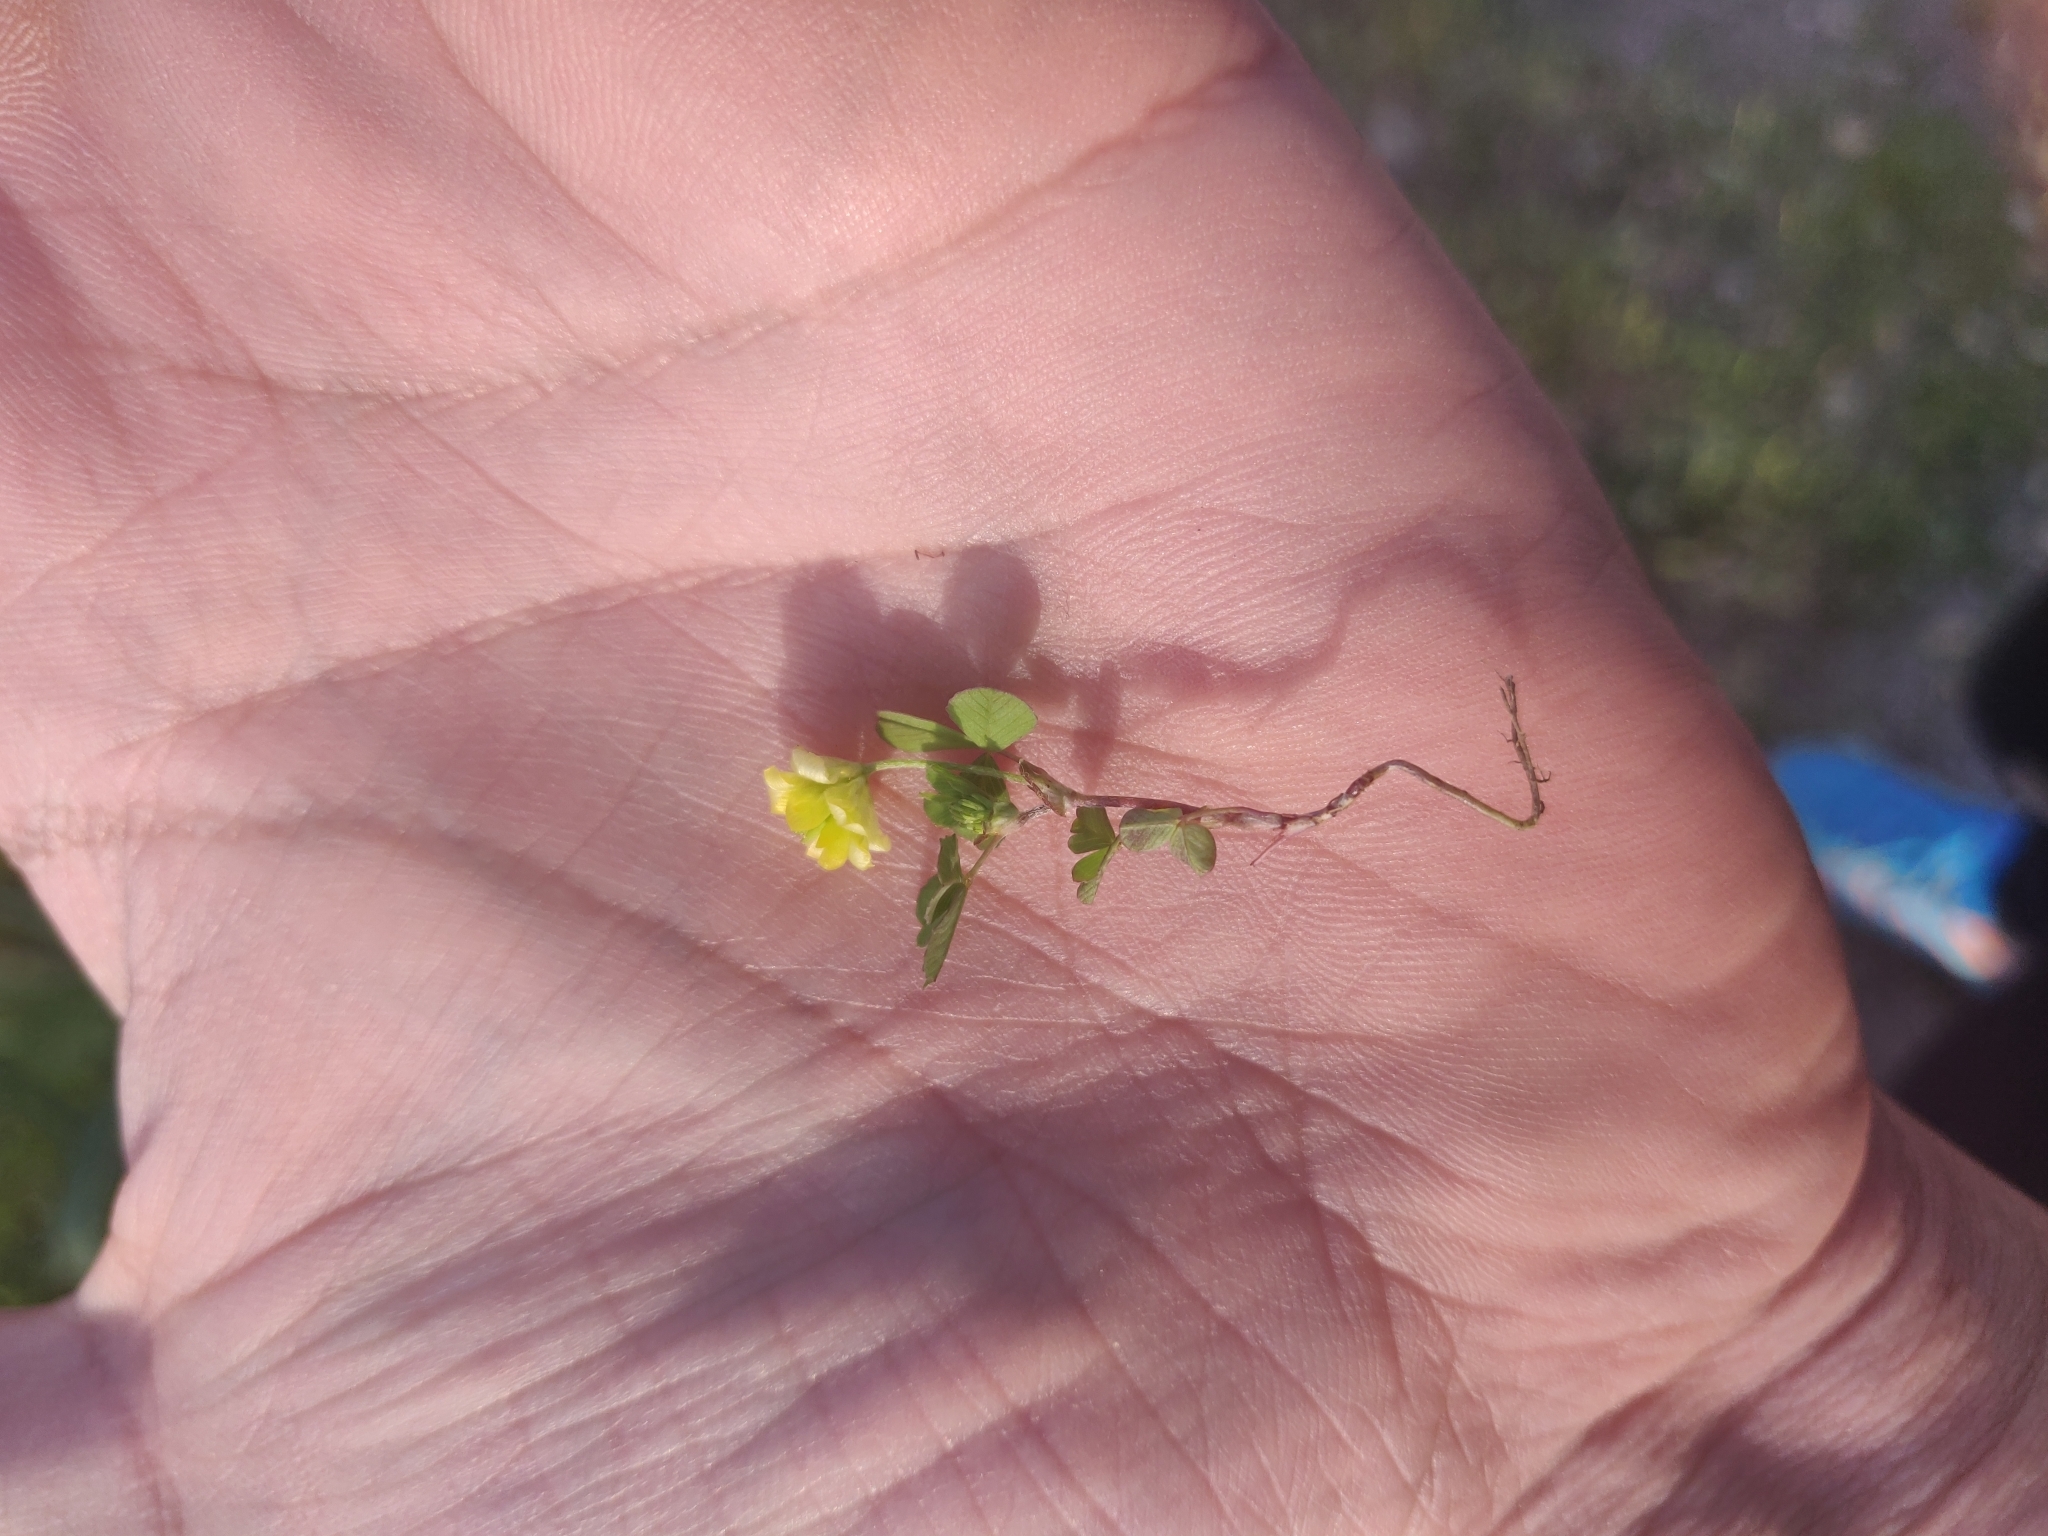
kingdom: Plantae
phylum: Tracheophyta
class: Magnoliopsida
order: Fabales
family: Fabaceae
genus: Trifolium
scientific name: Trifolium campestre
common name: Field clover
